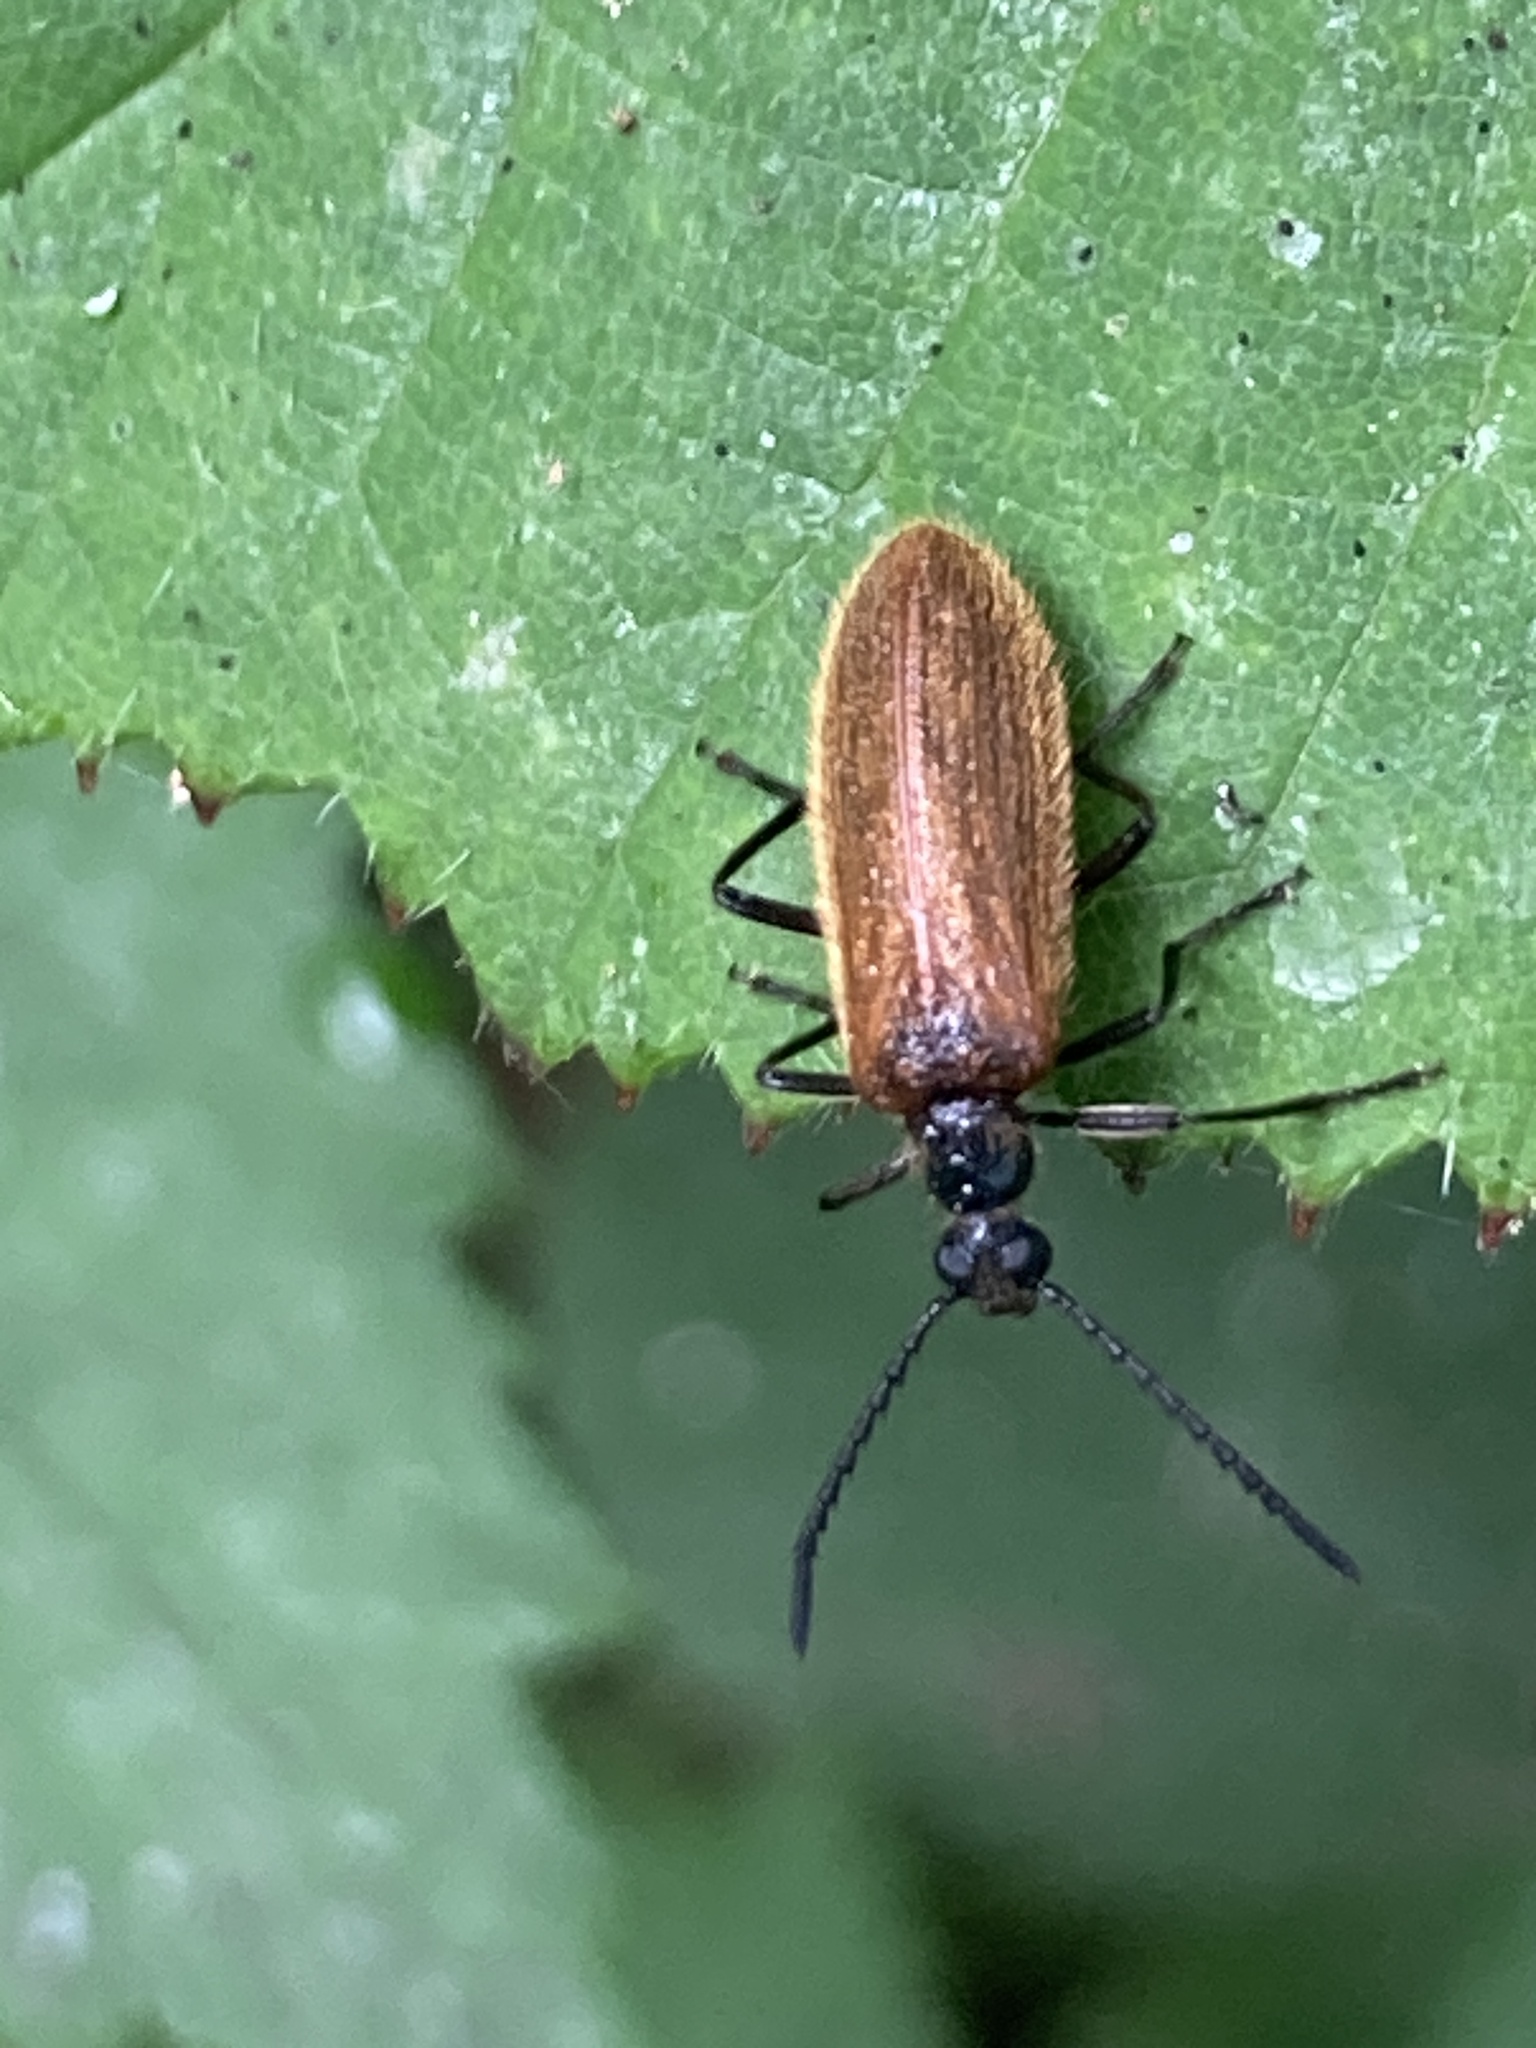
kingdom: Animalia
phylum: Arthropoda
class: Insecta
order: Coleoptera
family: Tenebrionidae
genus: Lagria
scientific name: Lagria hirta
